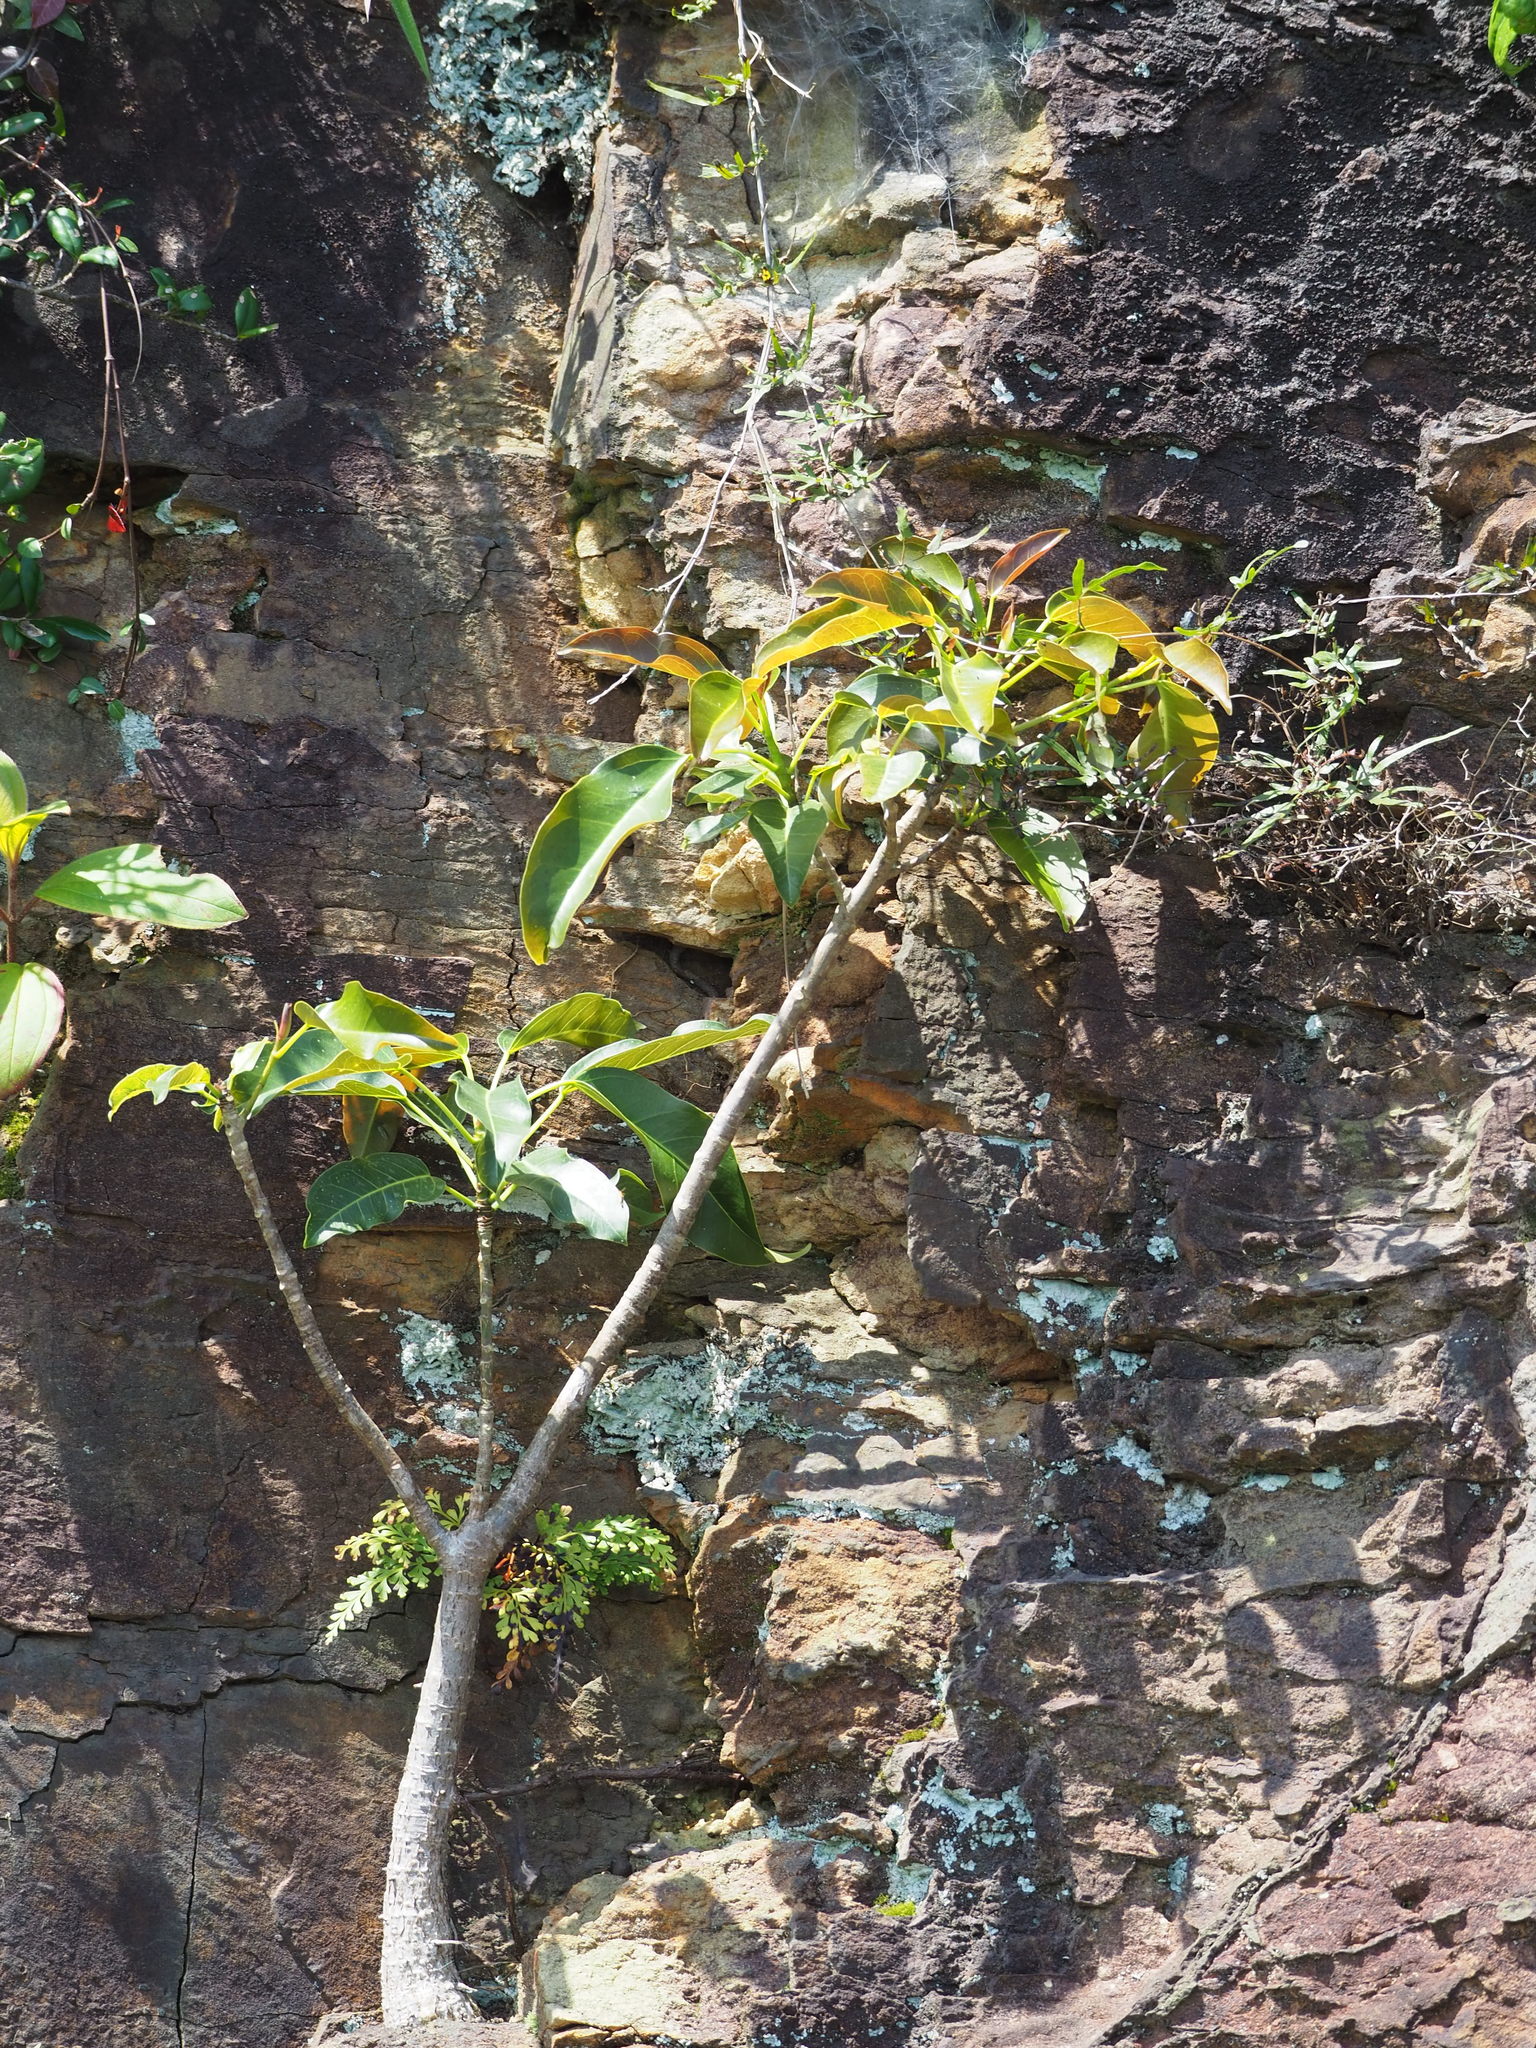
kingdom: Plantae
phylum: Tracheophyta
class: Magnoliopsida
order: Rosales
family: Moraceae
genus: Ficus
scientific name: Ficus subpisocarpa
